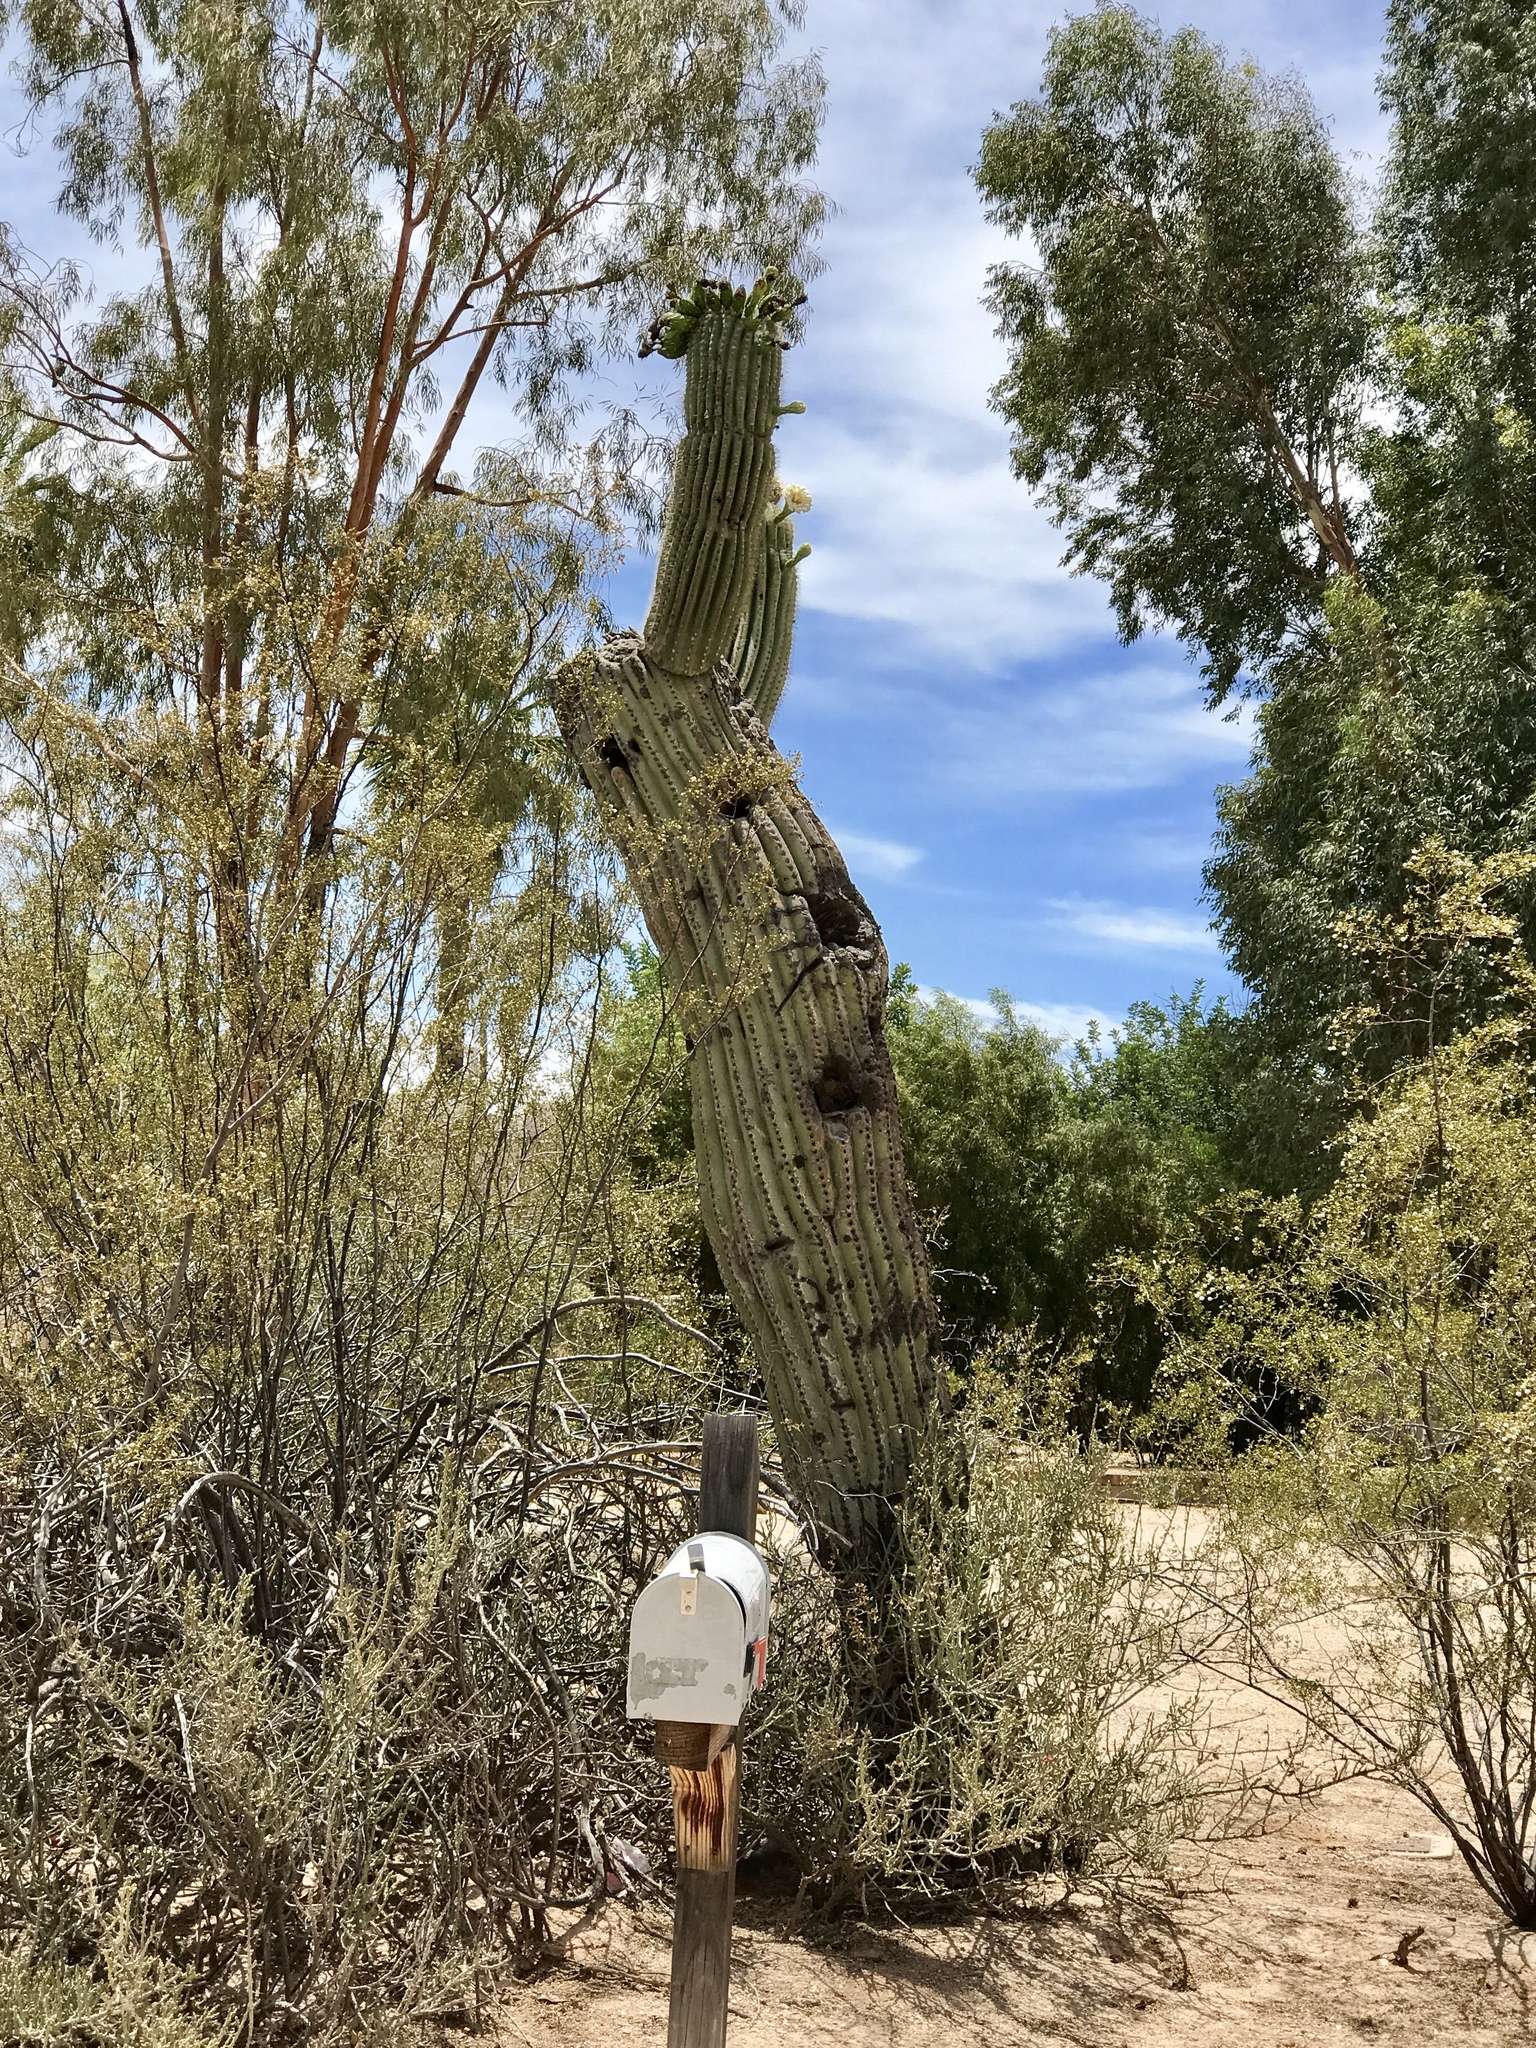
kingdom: Plantae
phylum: Tracheophyta
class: Magnoliopsida
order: Caryophyllales
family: Cactaceae
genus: Carnegiea
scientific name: Carnegiea gigantea
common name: Saguaro
